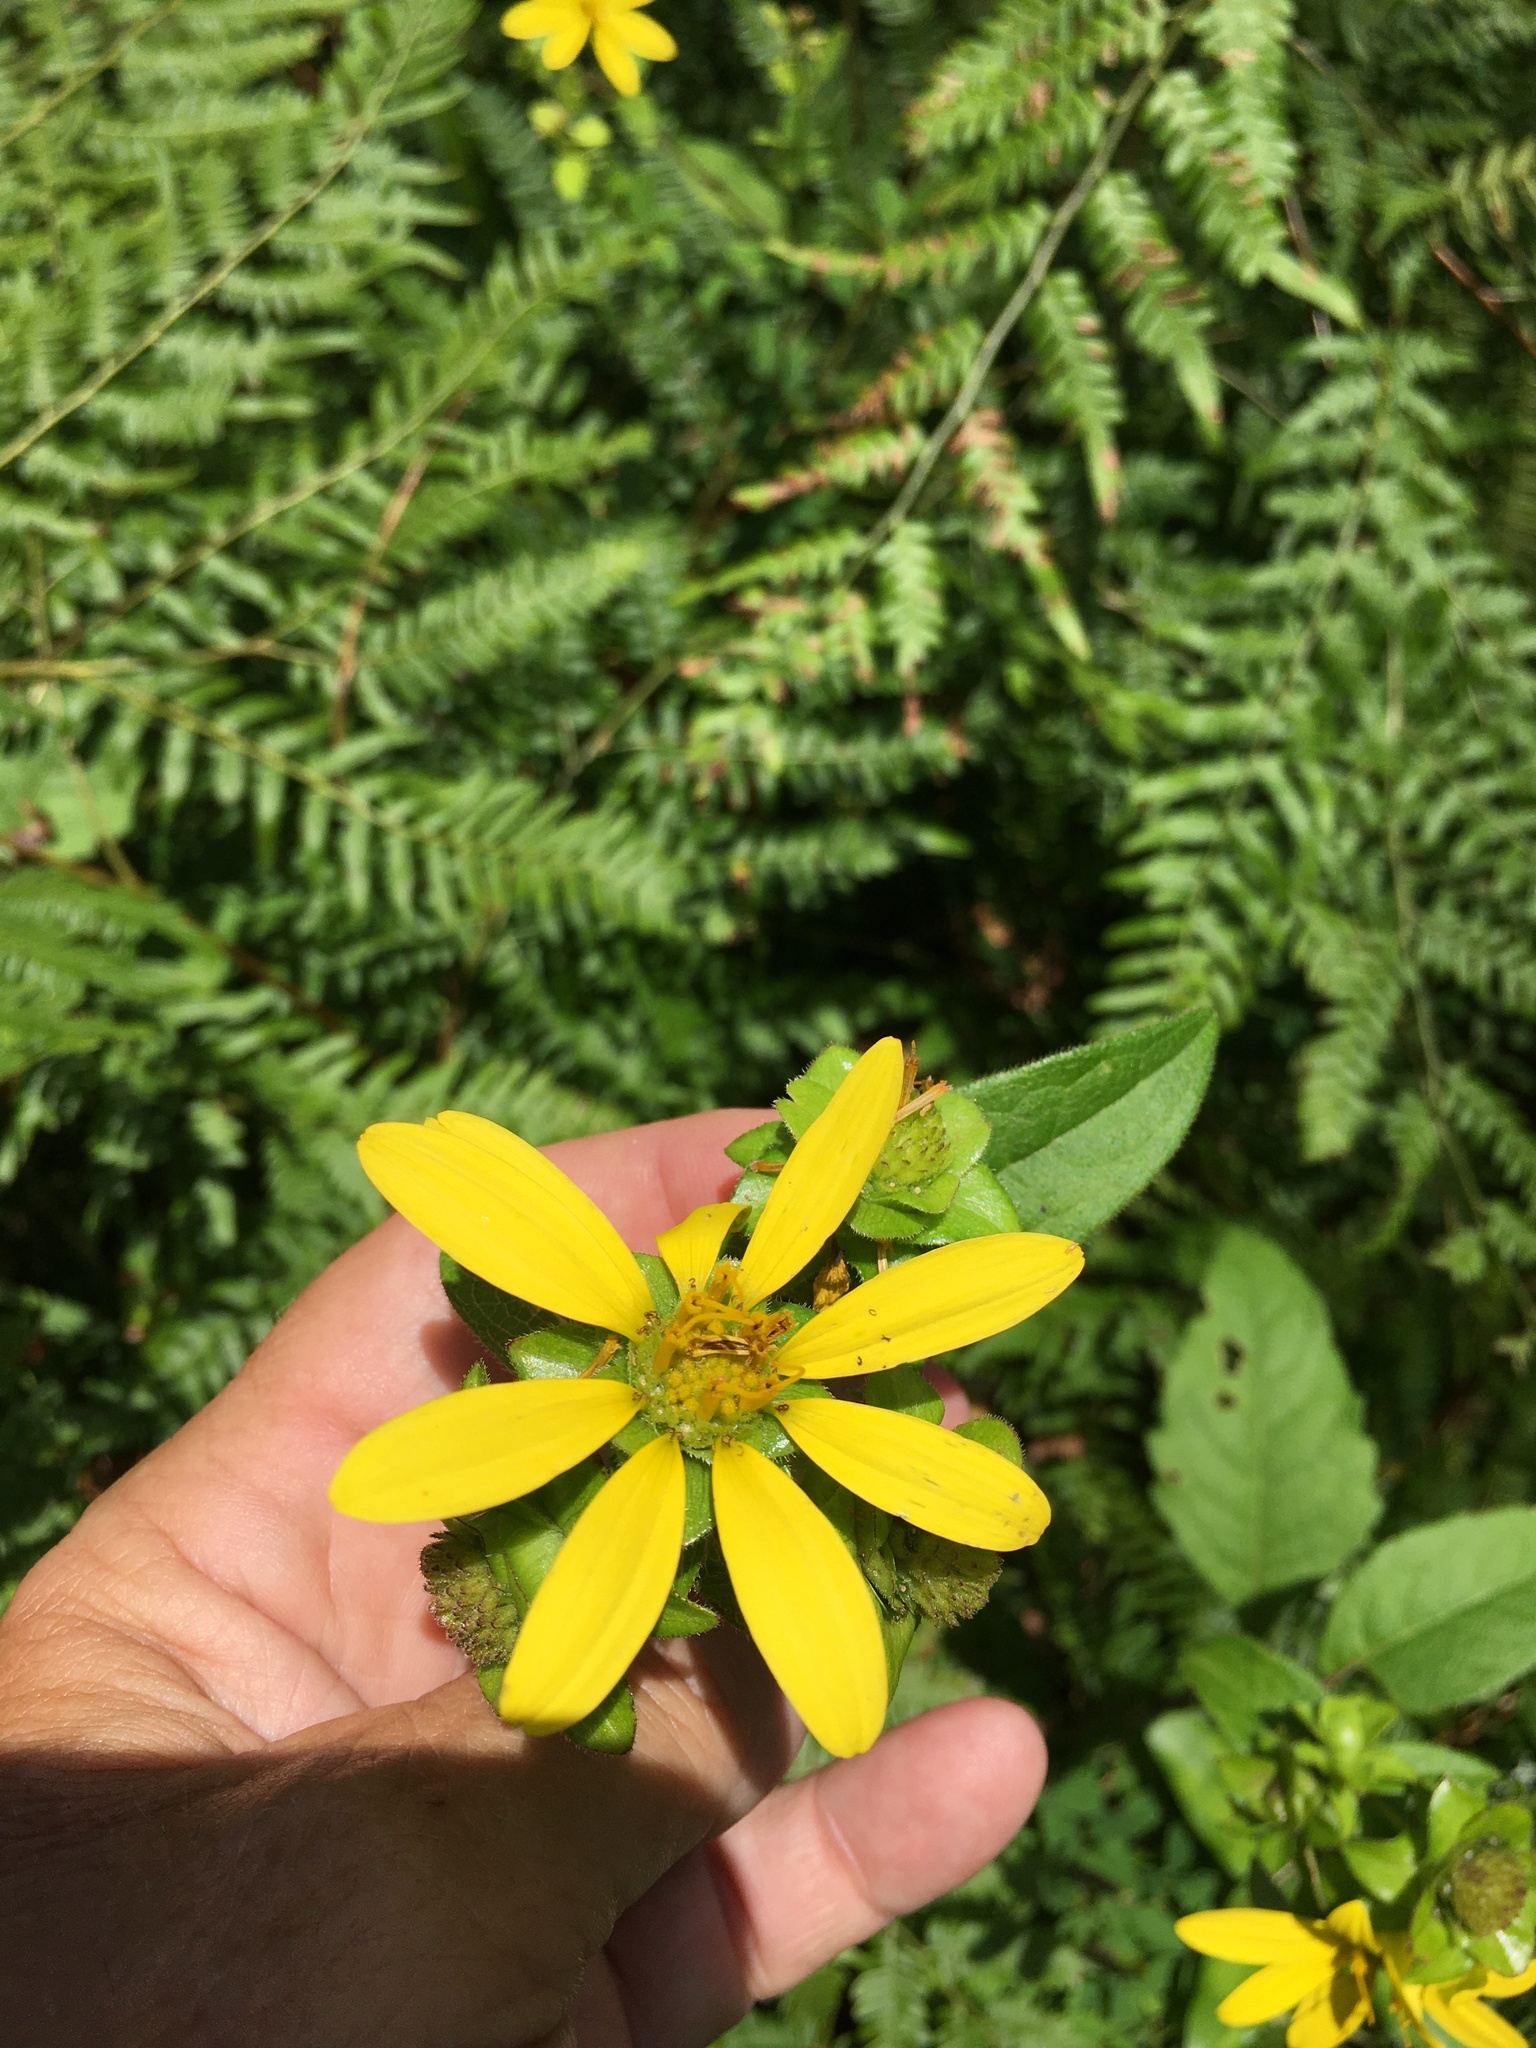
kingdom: Plantae
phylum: Tracheophyta
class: Magnoliopsida
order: Asterales
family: Asteraceae
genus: Silphium
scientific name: Silphium asteriscus
